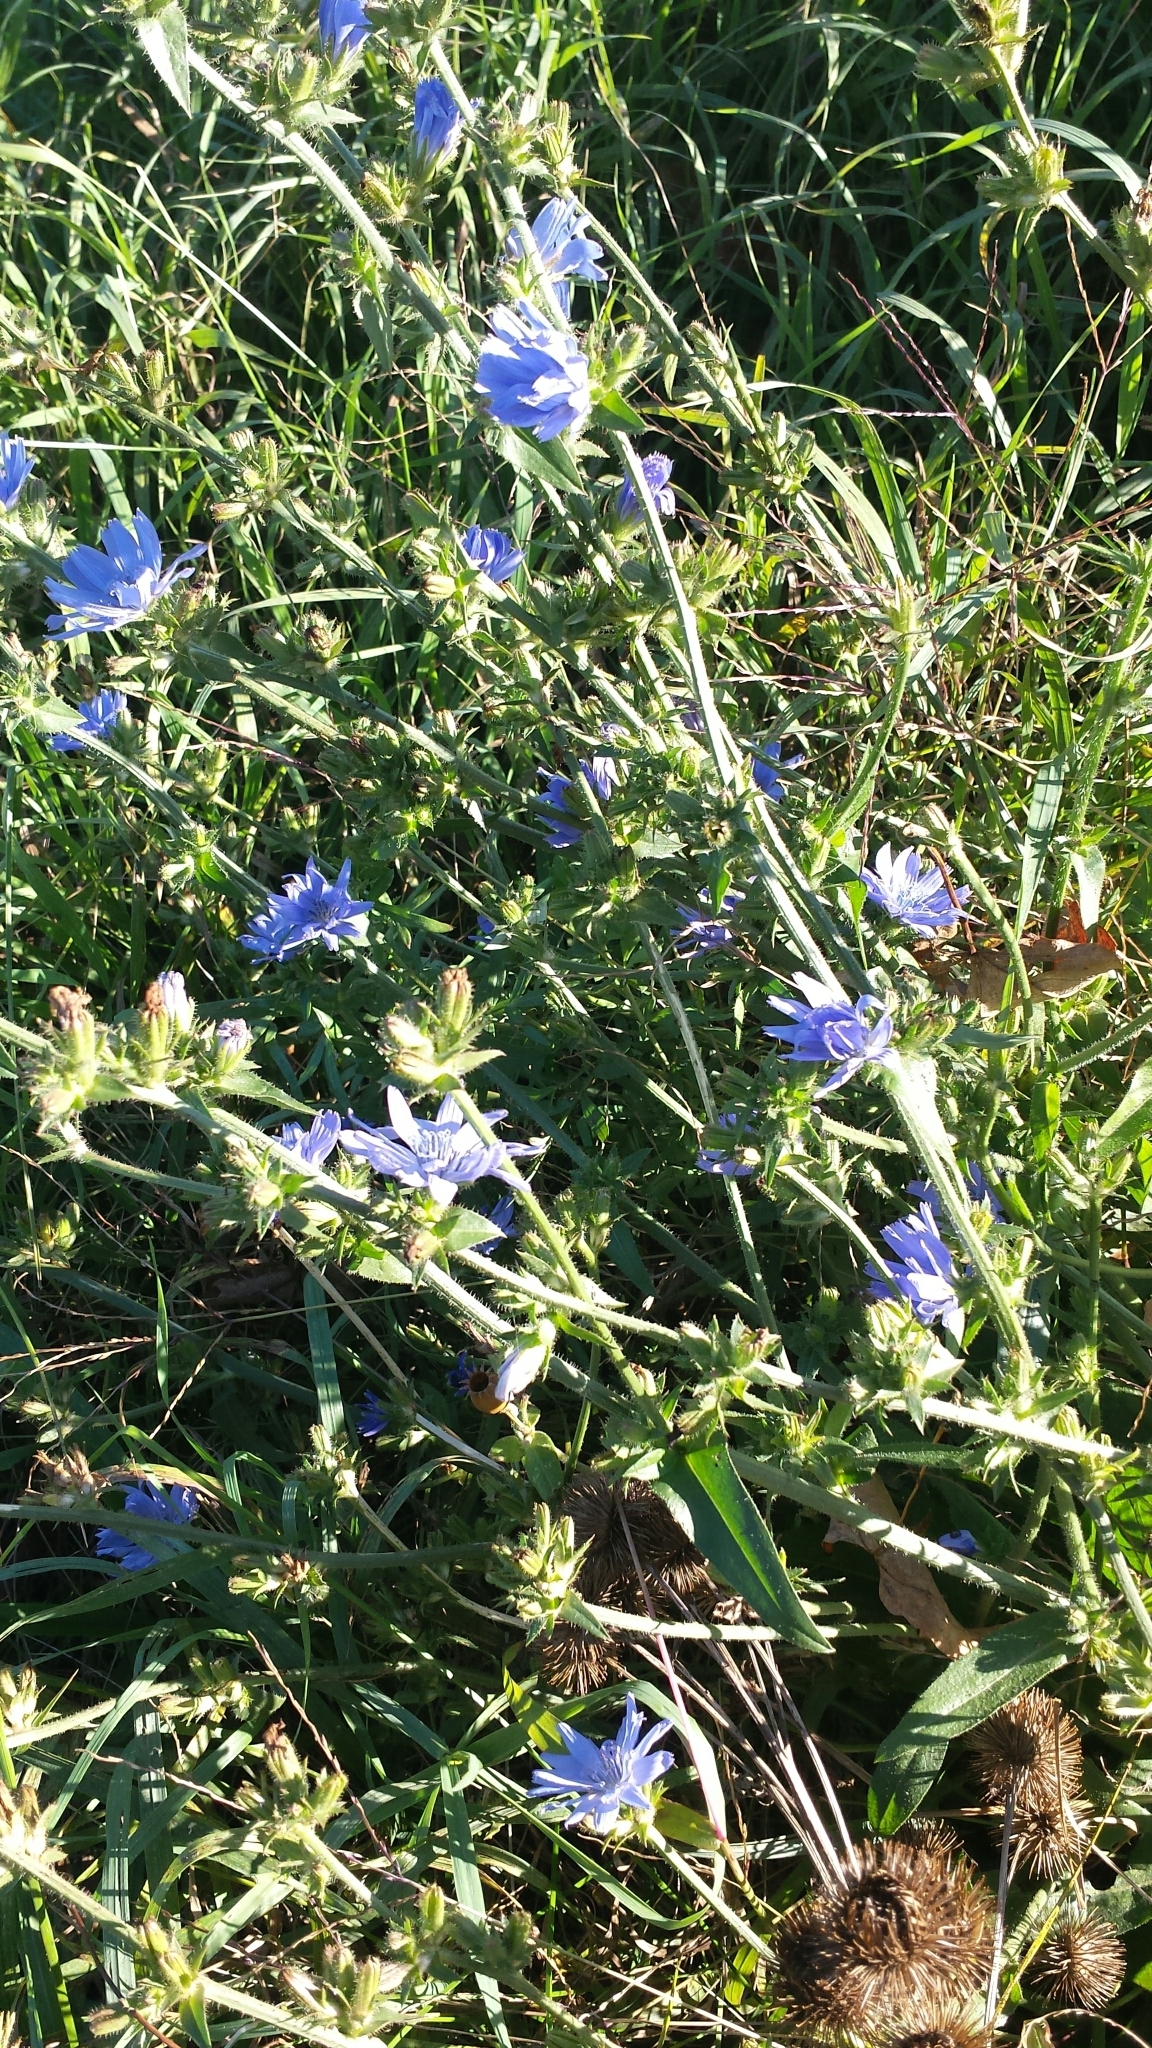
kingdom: Plantae
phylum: Tracheophyta
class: Magnoliopsida
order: Asterales
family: Asteraceae
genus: Cichorium
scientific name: Cichorium intybus
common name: Chicory
